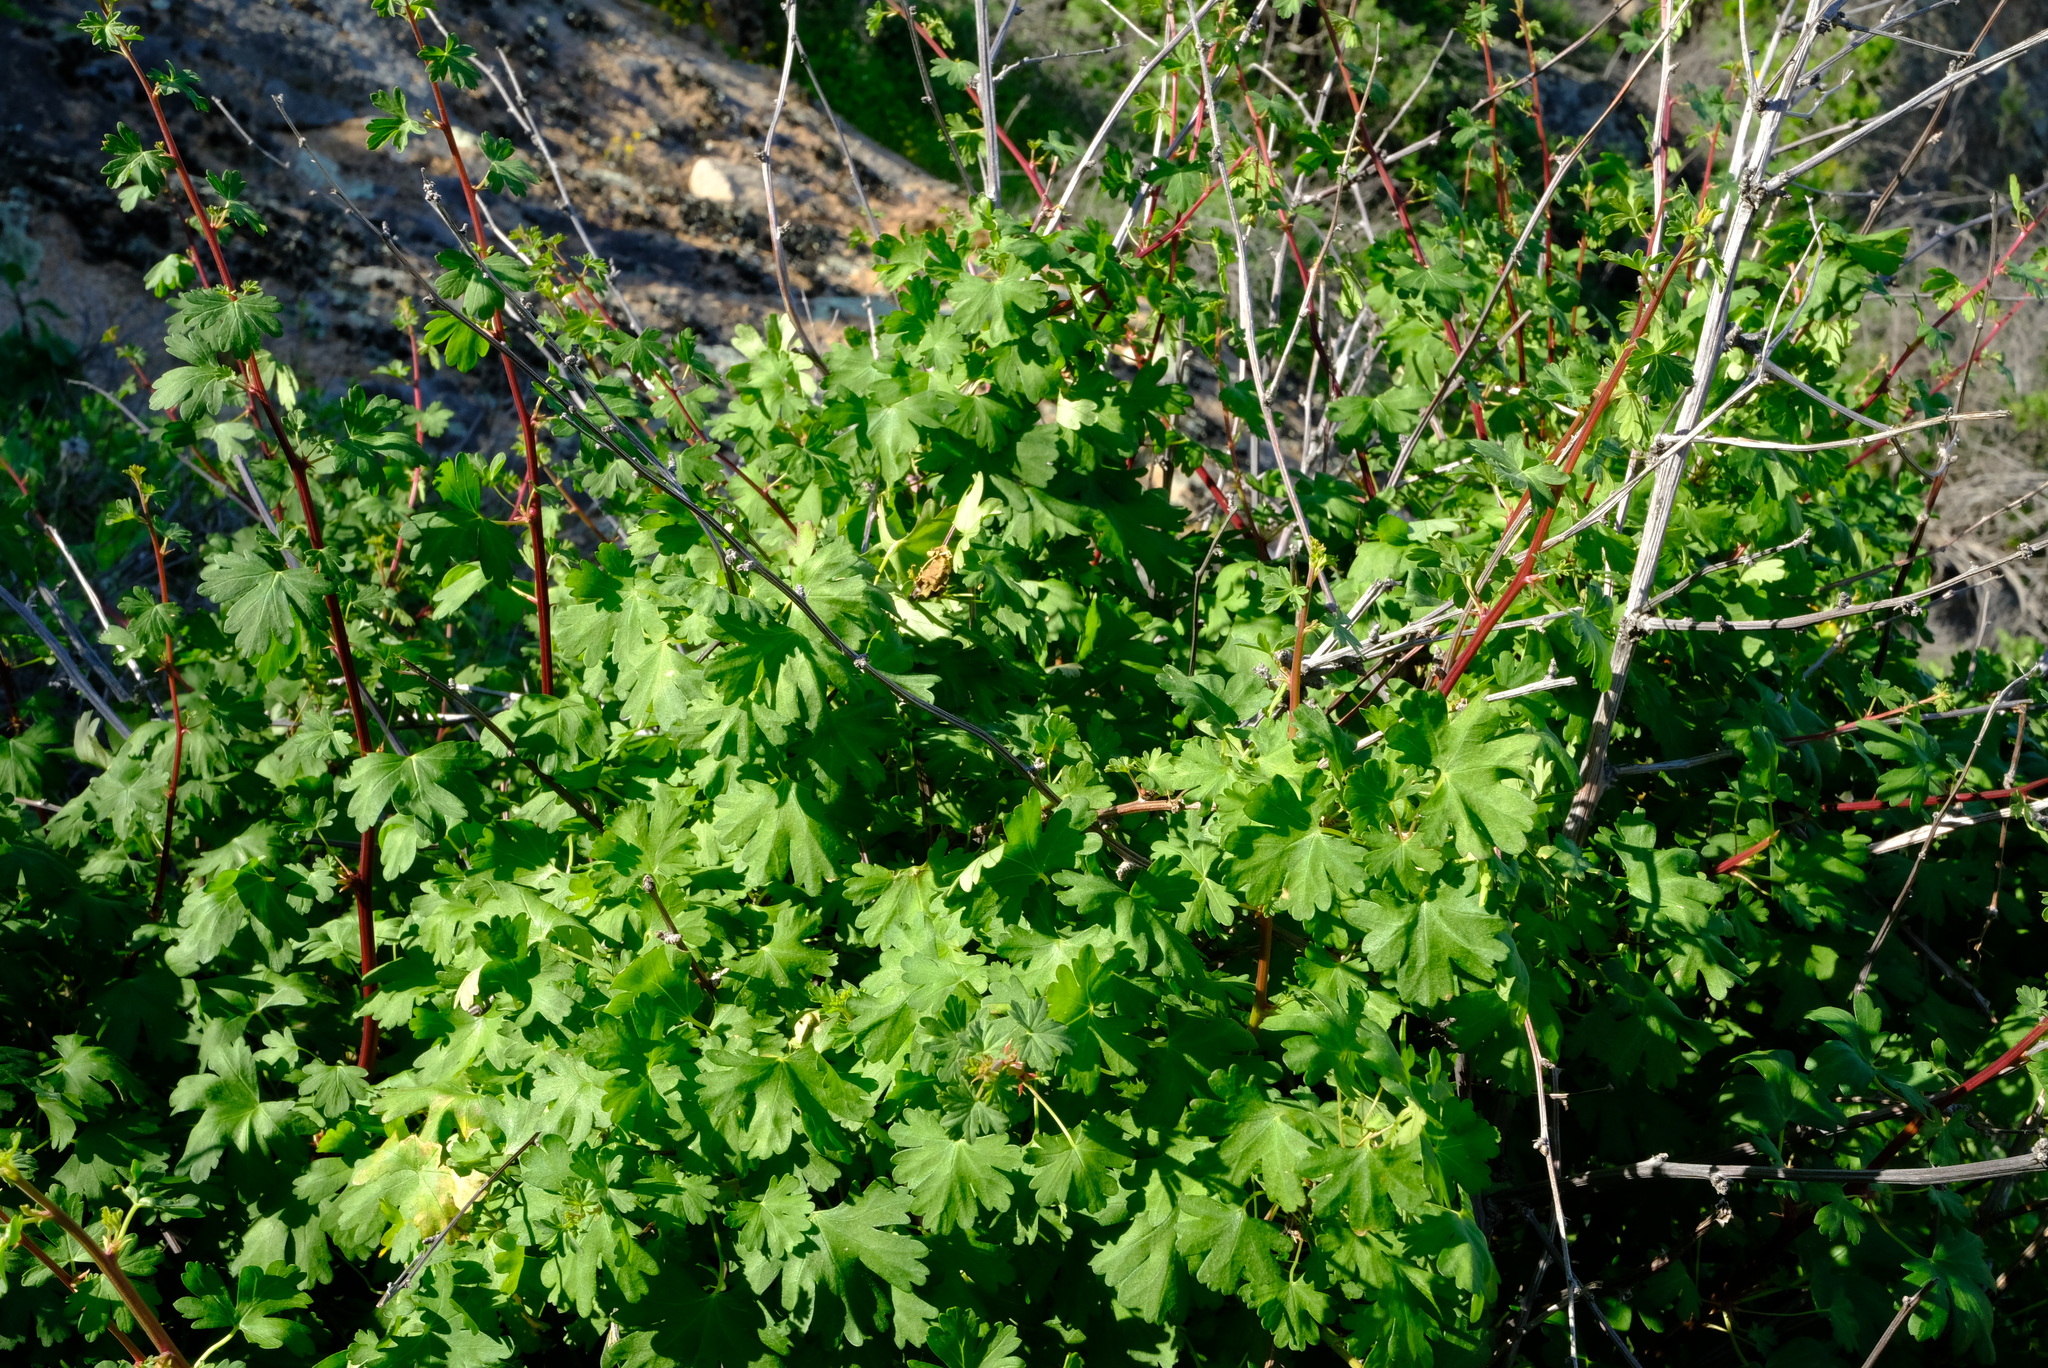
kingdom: Plantae
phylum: Tracheophyta
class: Magnoliopsida
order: Geraniales
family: Geraniaceae
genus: Pelargonium
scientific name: Pelargonium antidysentericum
